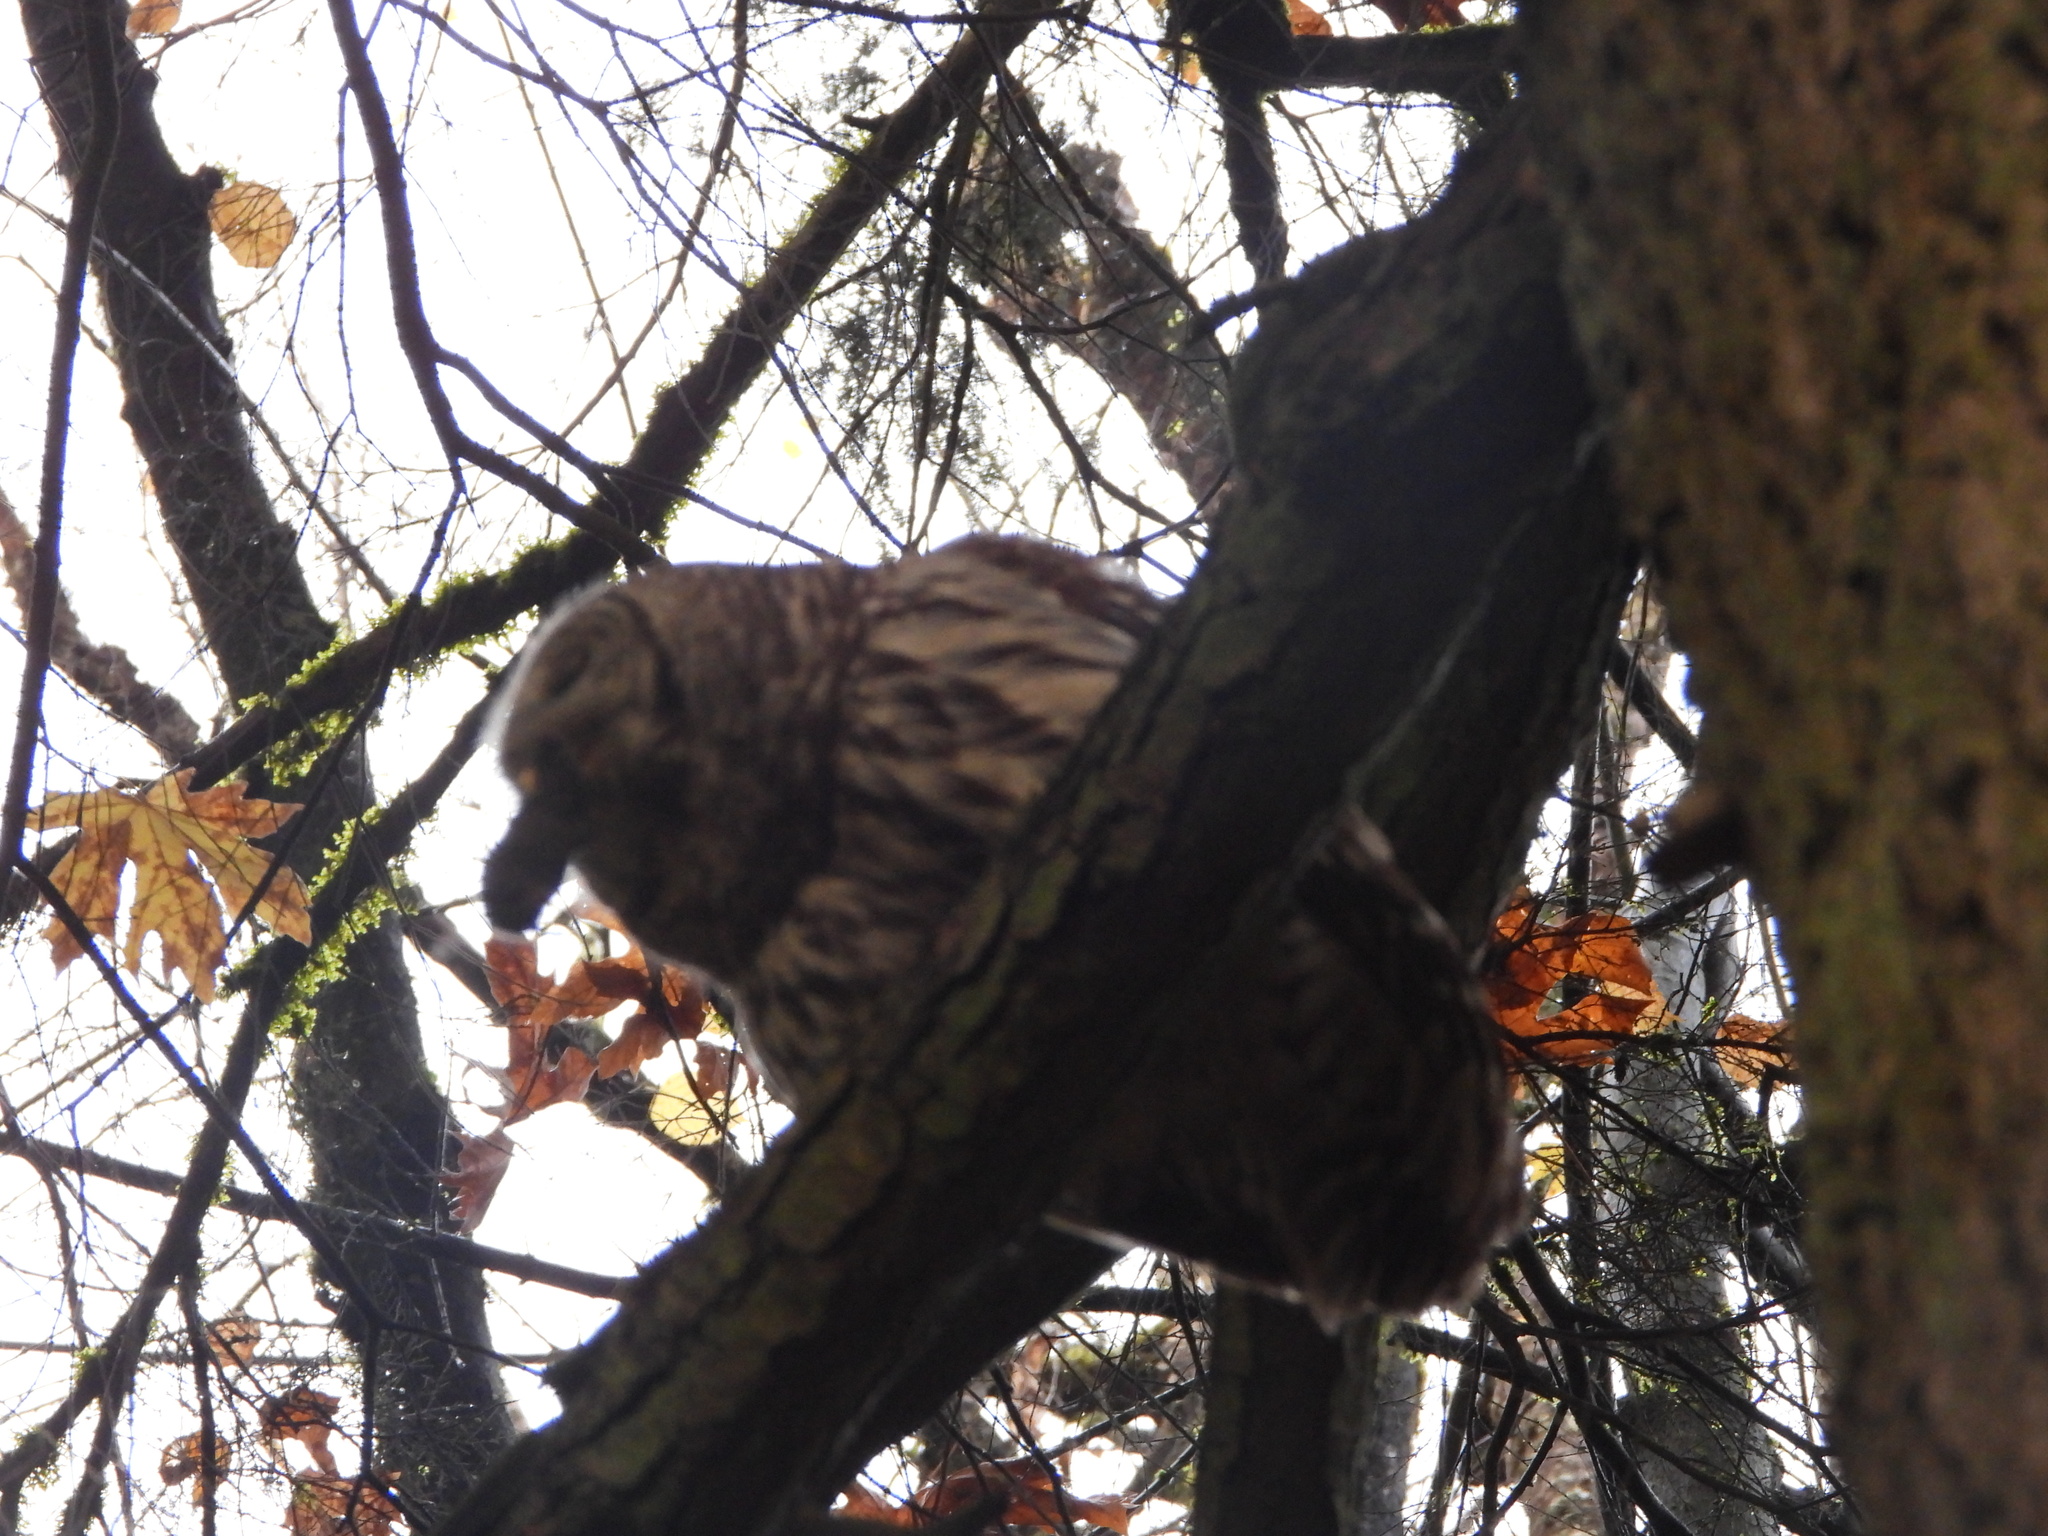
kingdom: Animalia
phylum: Chordata
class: Aves
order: Strigiformes
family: Strigidae
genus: Strix
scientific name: Strix varia
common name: Barred owl
